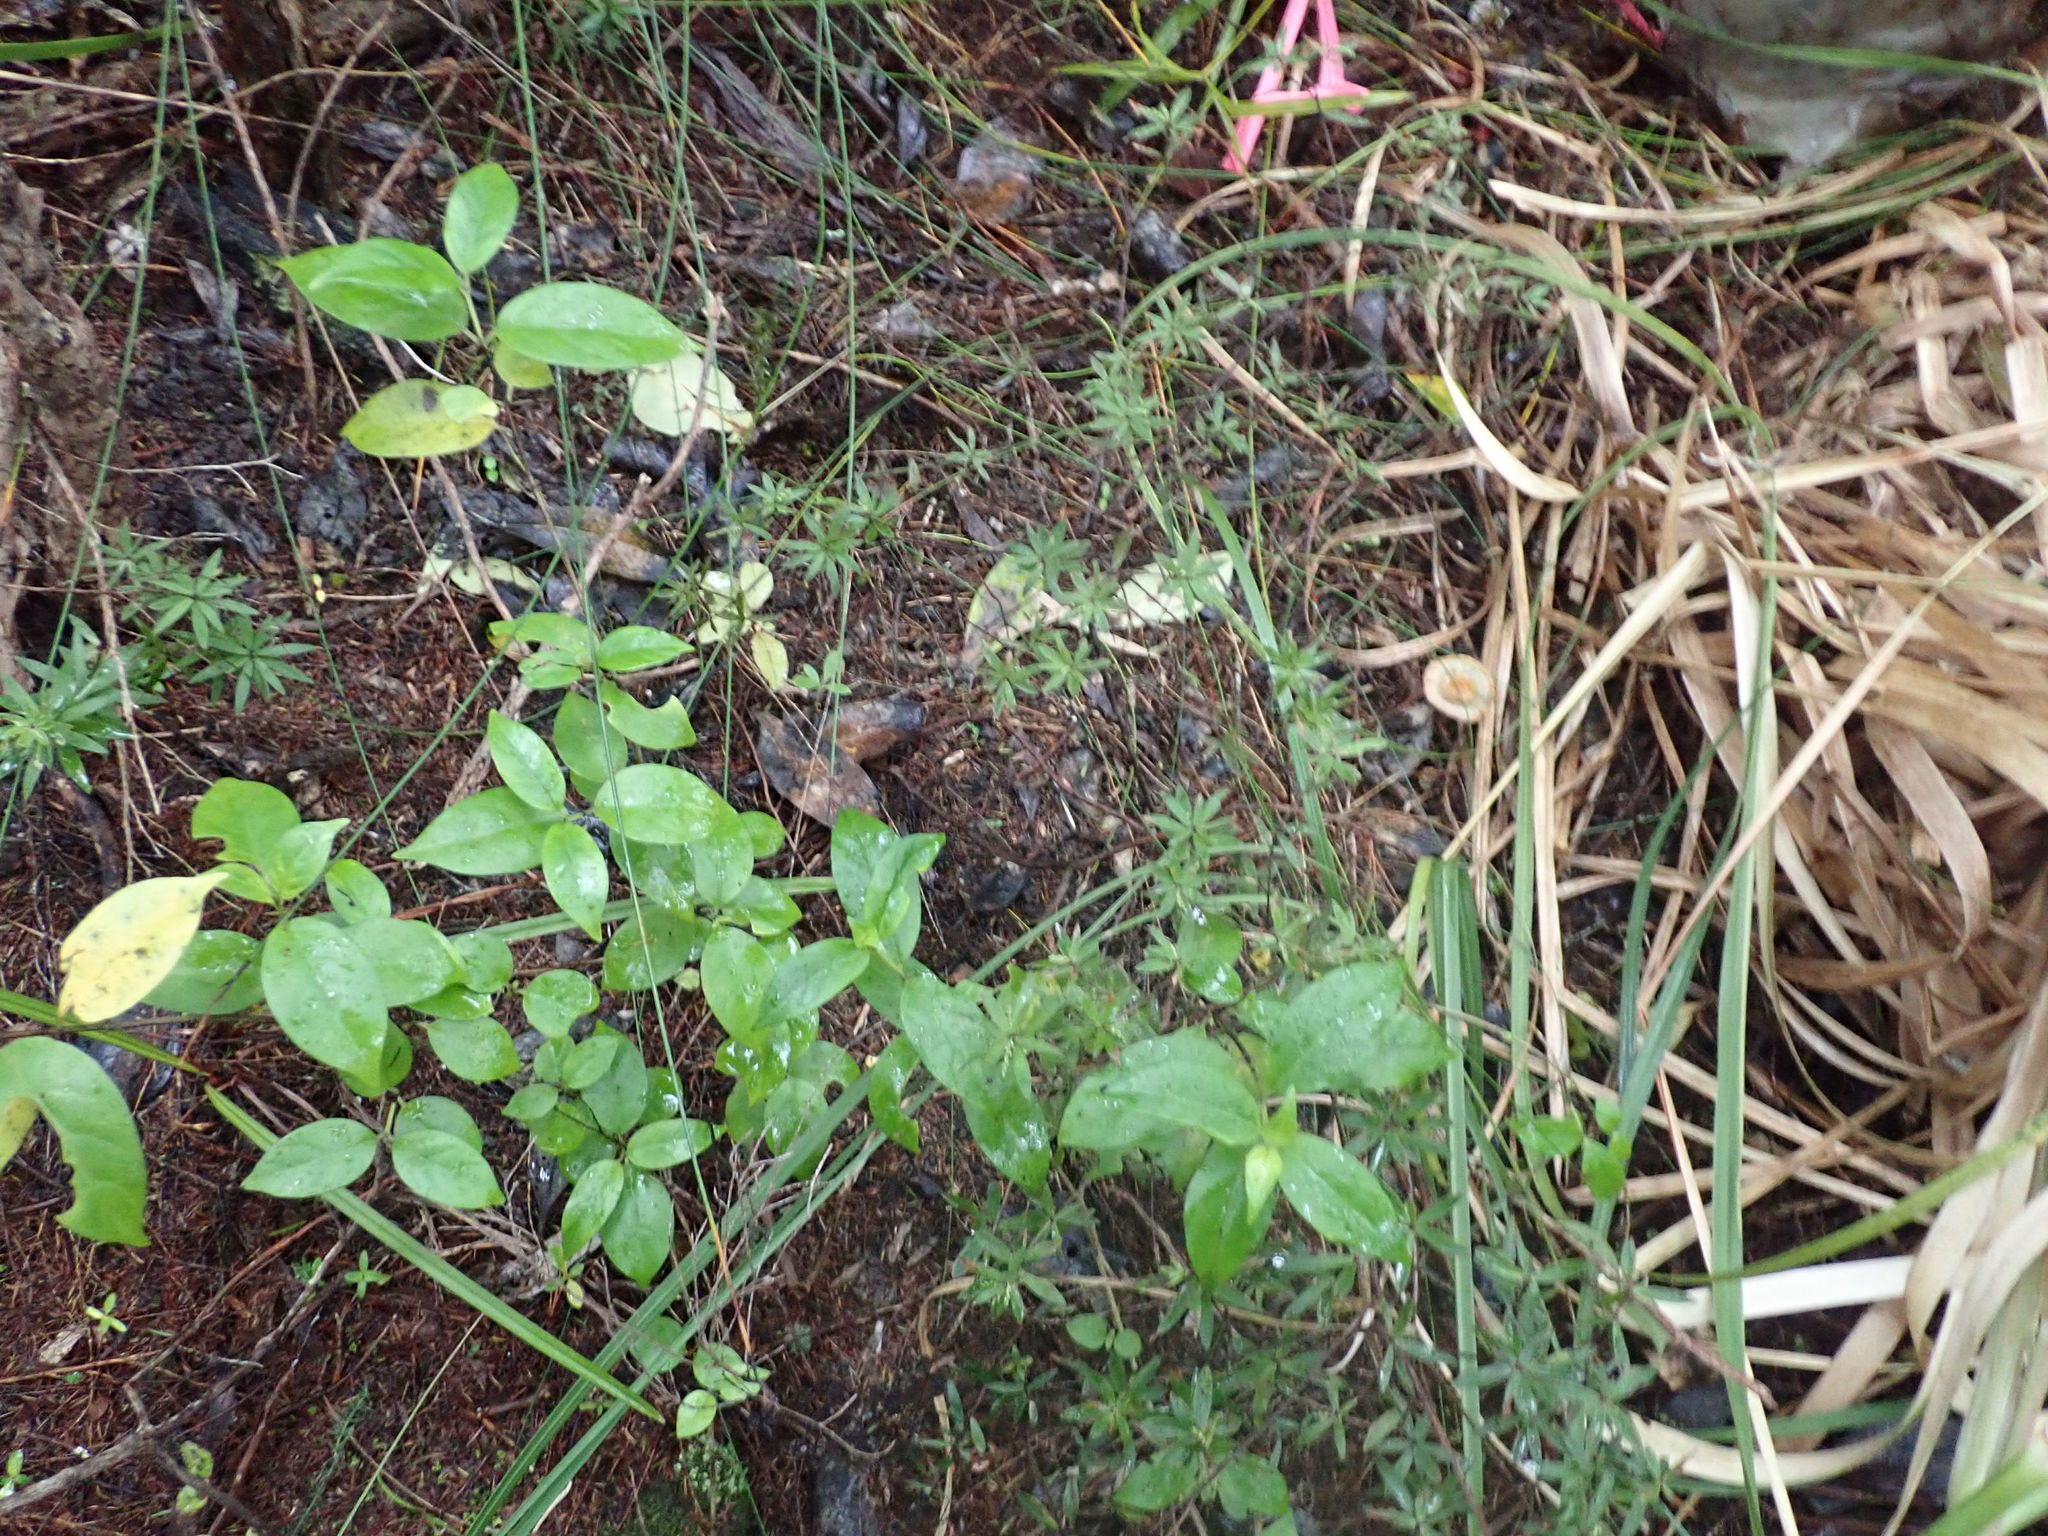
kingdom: Plantae
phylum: Tracheophyta
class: Magnoliopsida
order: Gentianales
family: Loganiaceae
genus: Geniostoma
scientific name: Geniostoma ligustrifolium
